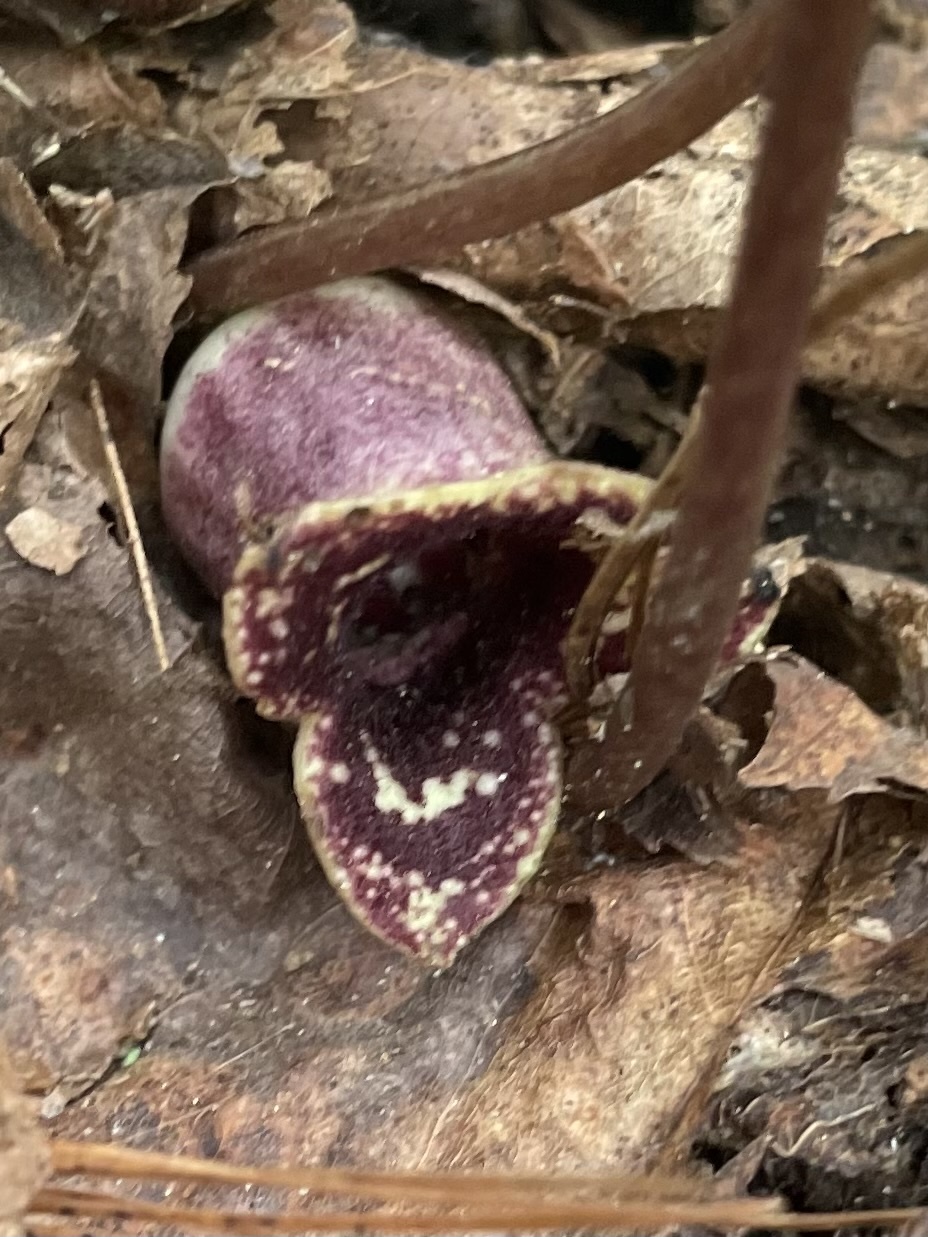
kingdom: Plantae
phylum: Tracheophyta
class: Magnoliopsida
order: Piperales
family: Aristolochiaceae
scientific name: Aristolochiaceae
